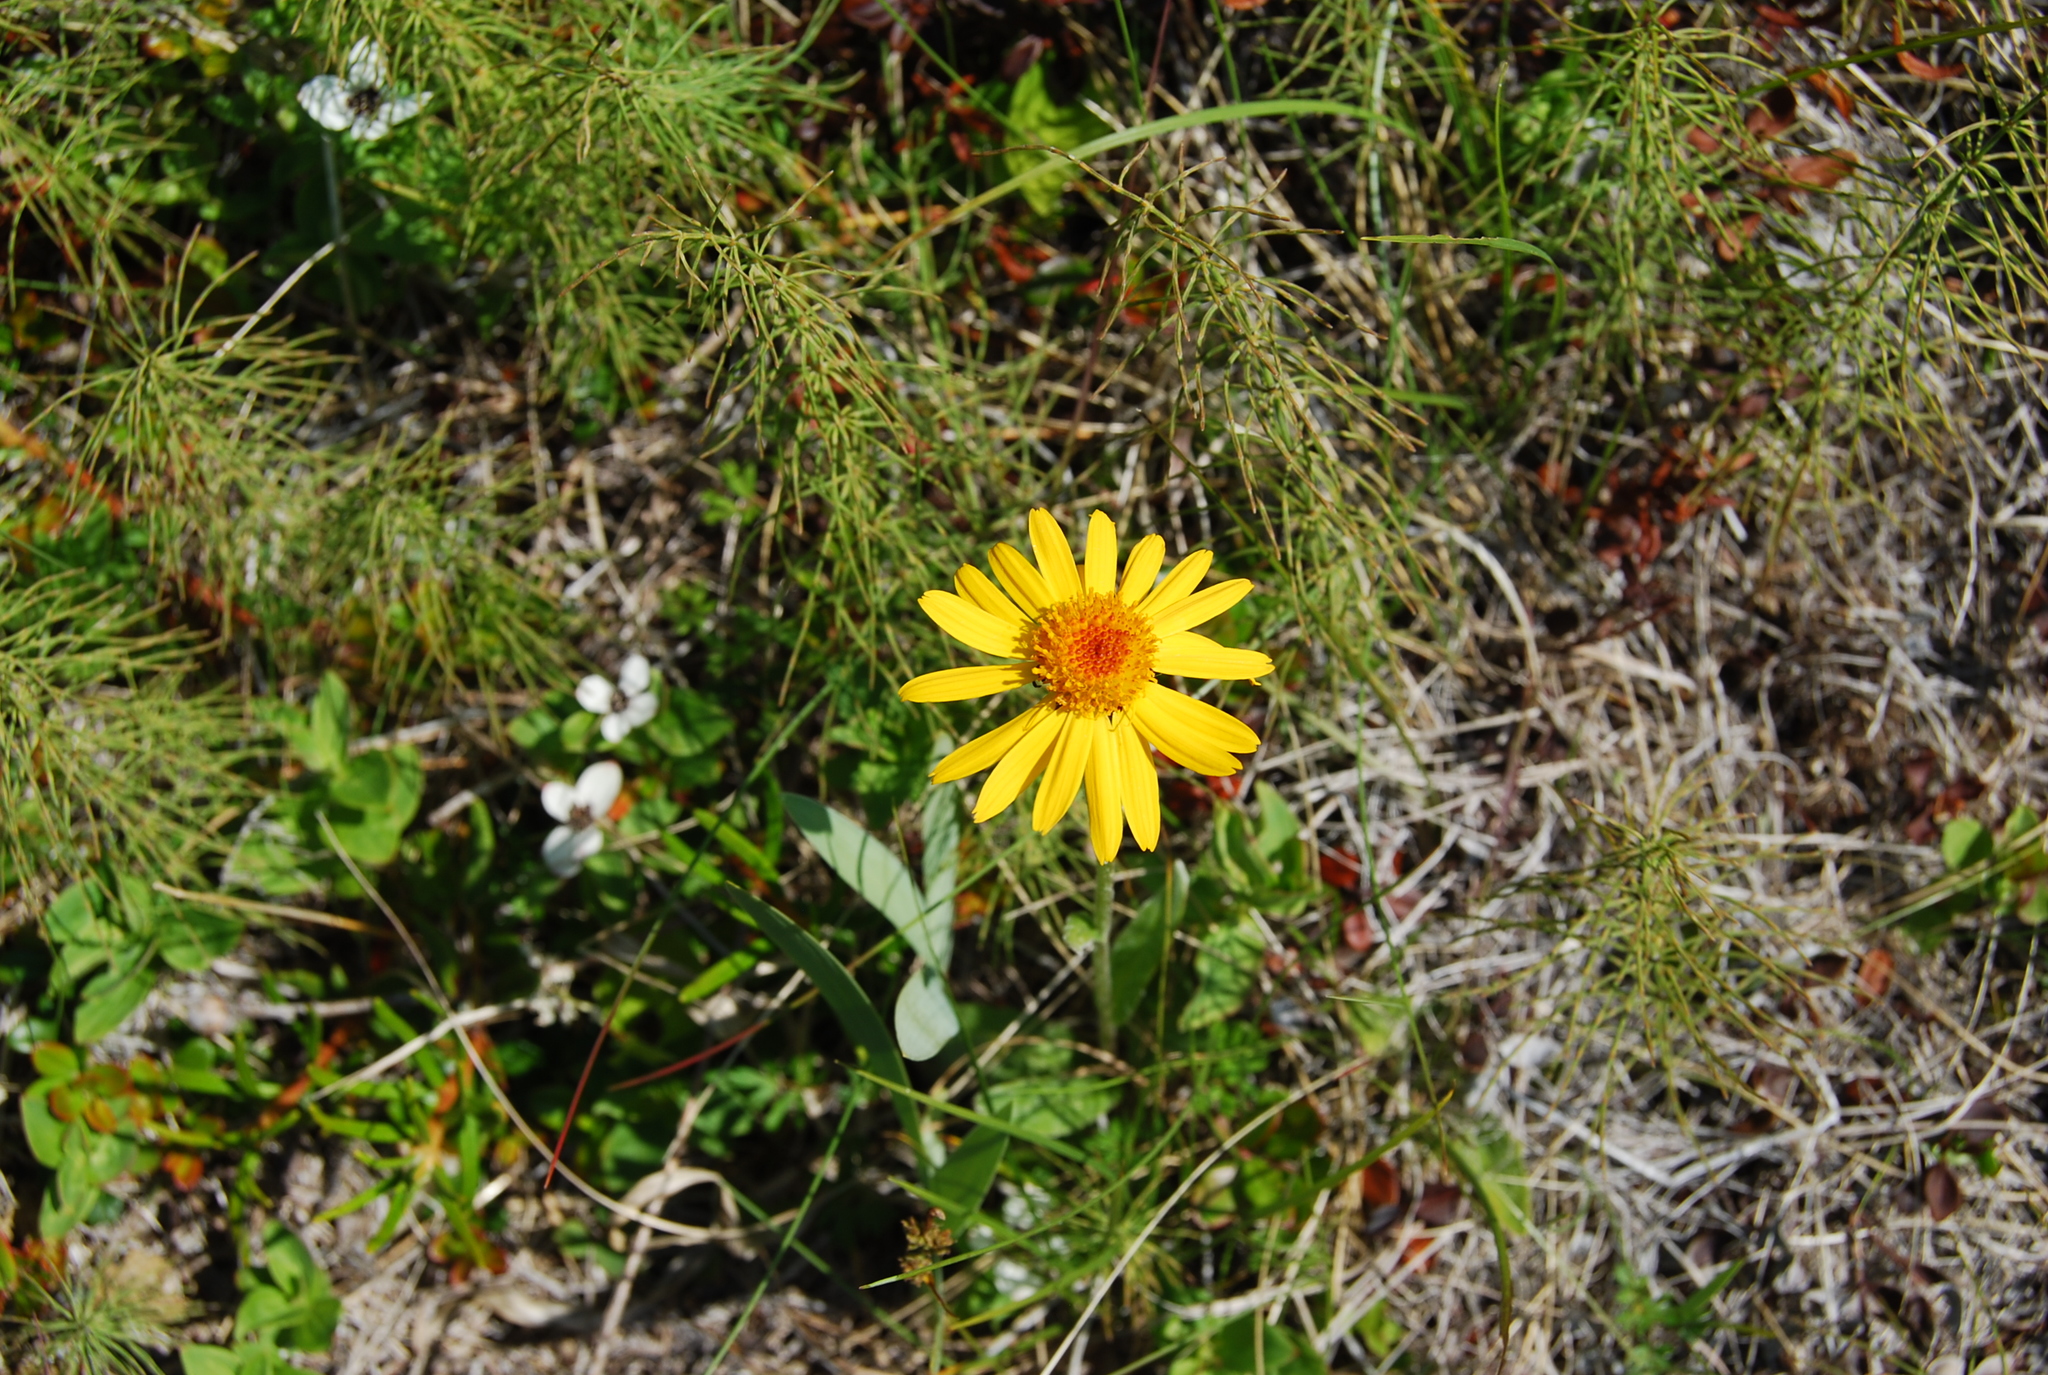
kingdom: Plantae
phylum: Tracheophyta
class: Magnoliopsida
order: Asterales
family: Asteraceae
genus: Tephroseris
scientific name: Tephroseris integrifolia
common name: Field fleawort
